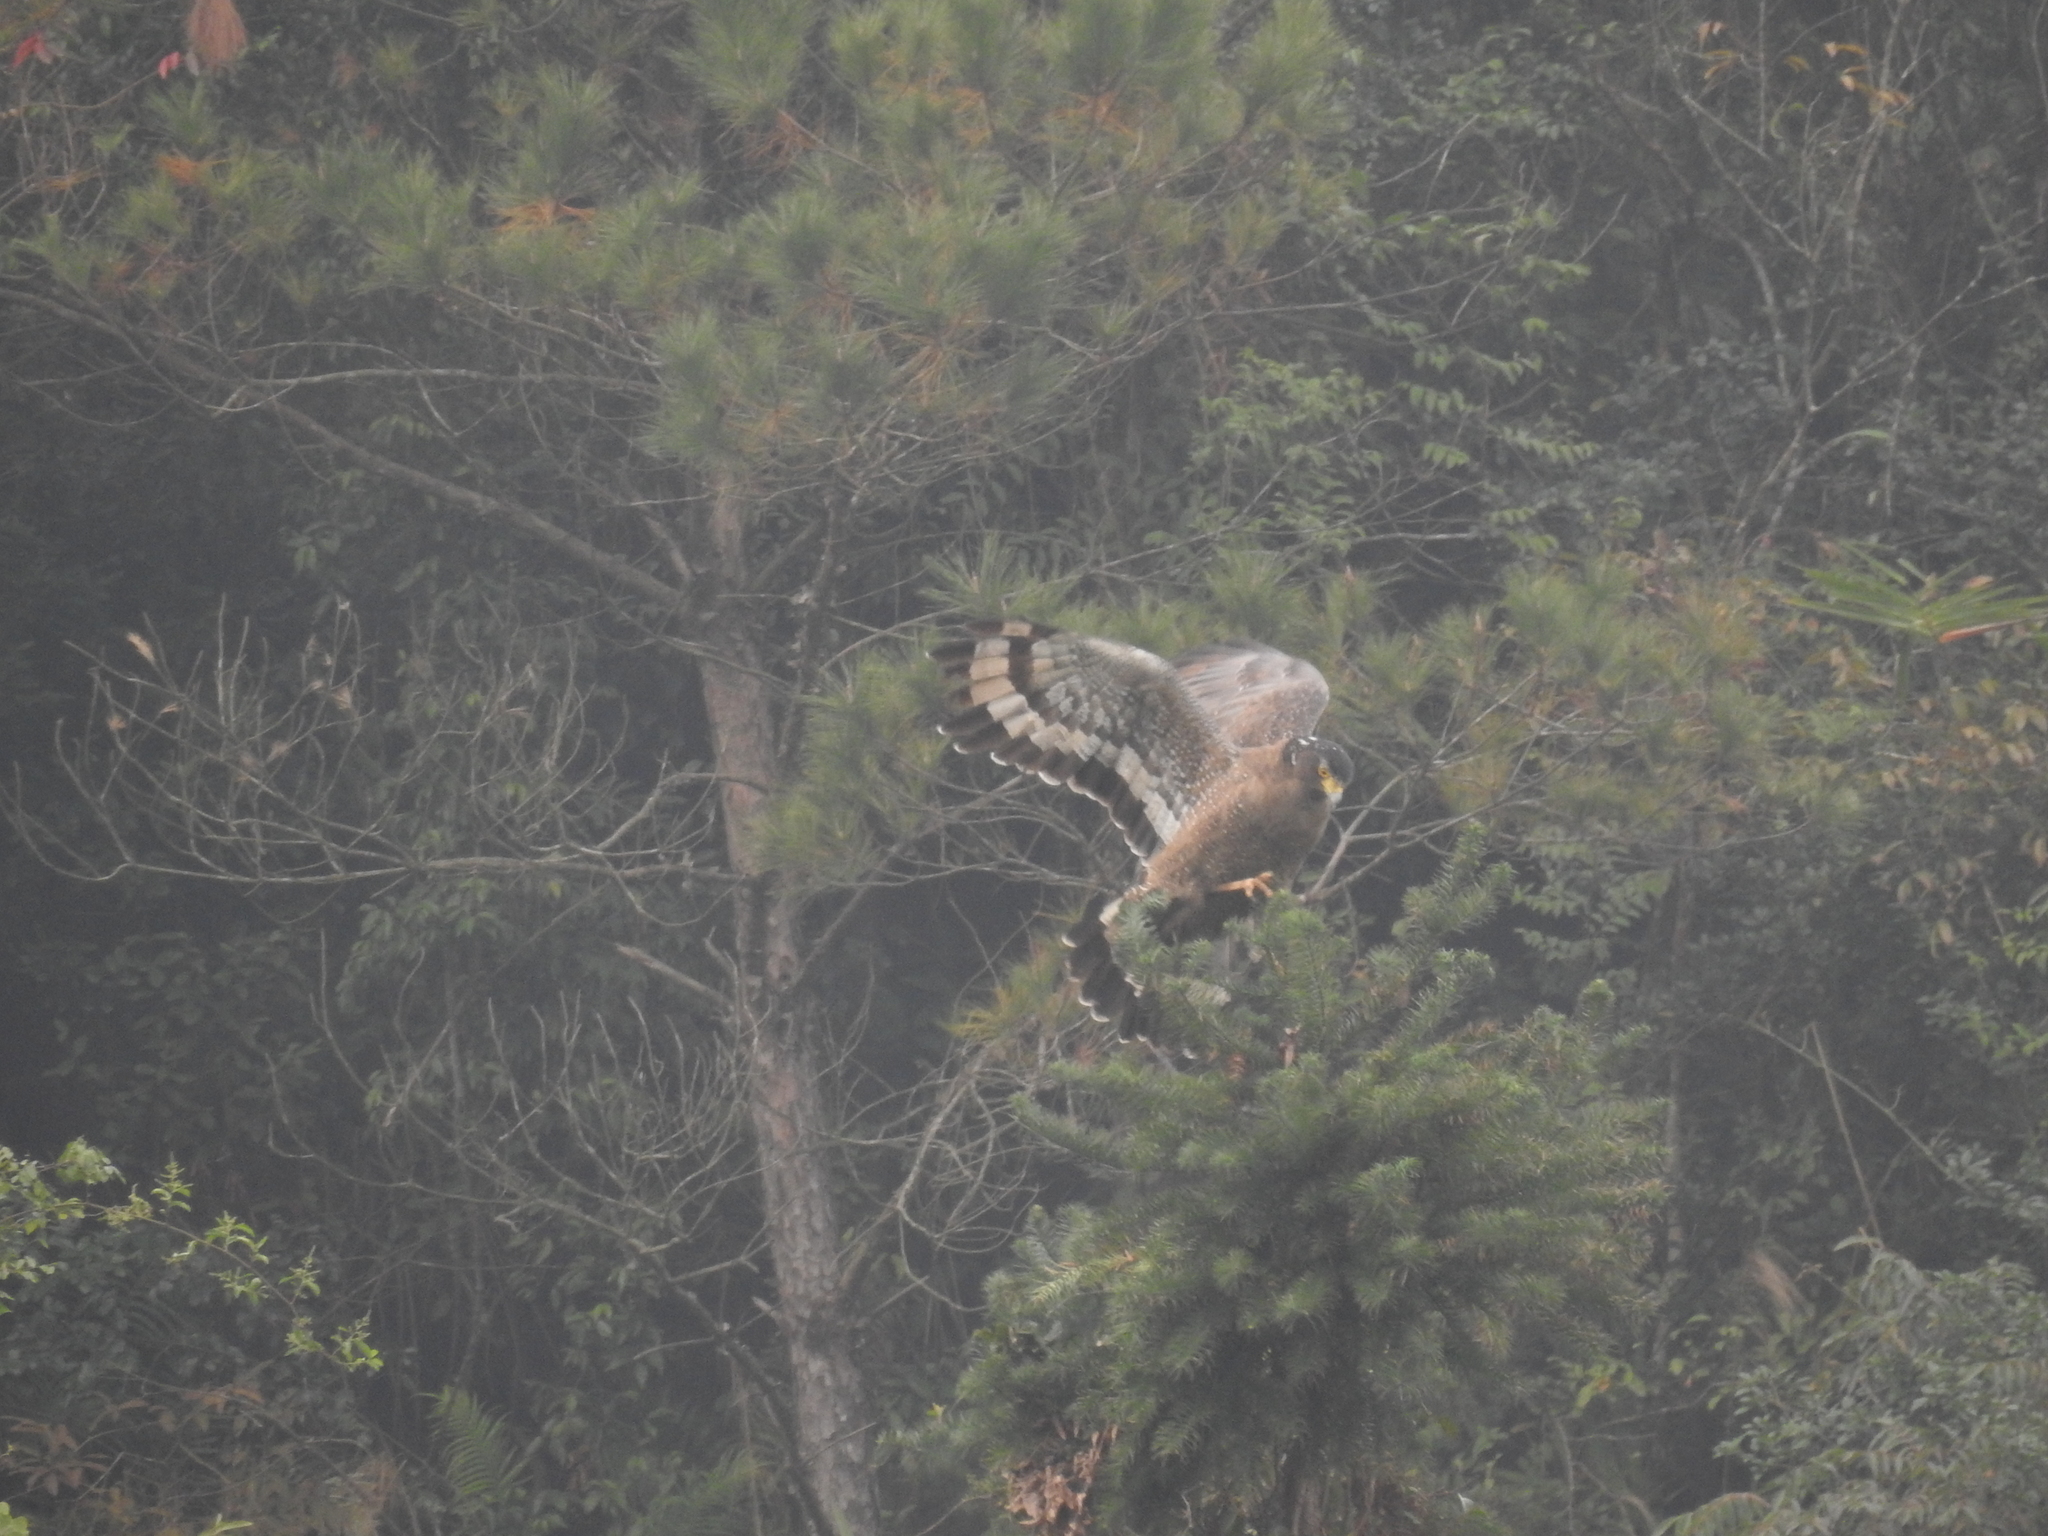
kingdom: Animalia
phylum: Chordata
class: Aves
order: Accipitriformes
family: Accipitridae
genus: Spilornis
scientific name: Spilornis cheela
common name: Crested serpent eagle
